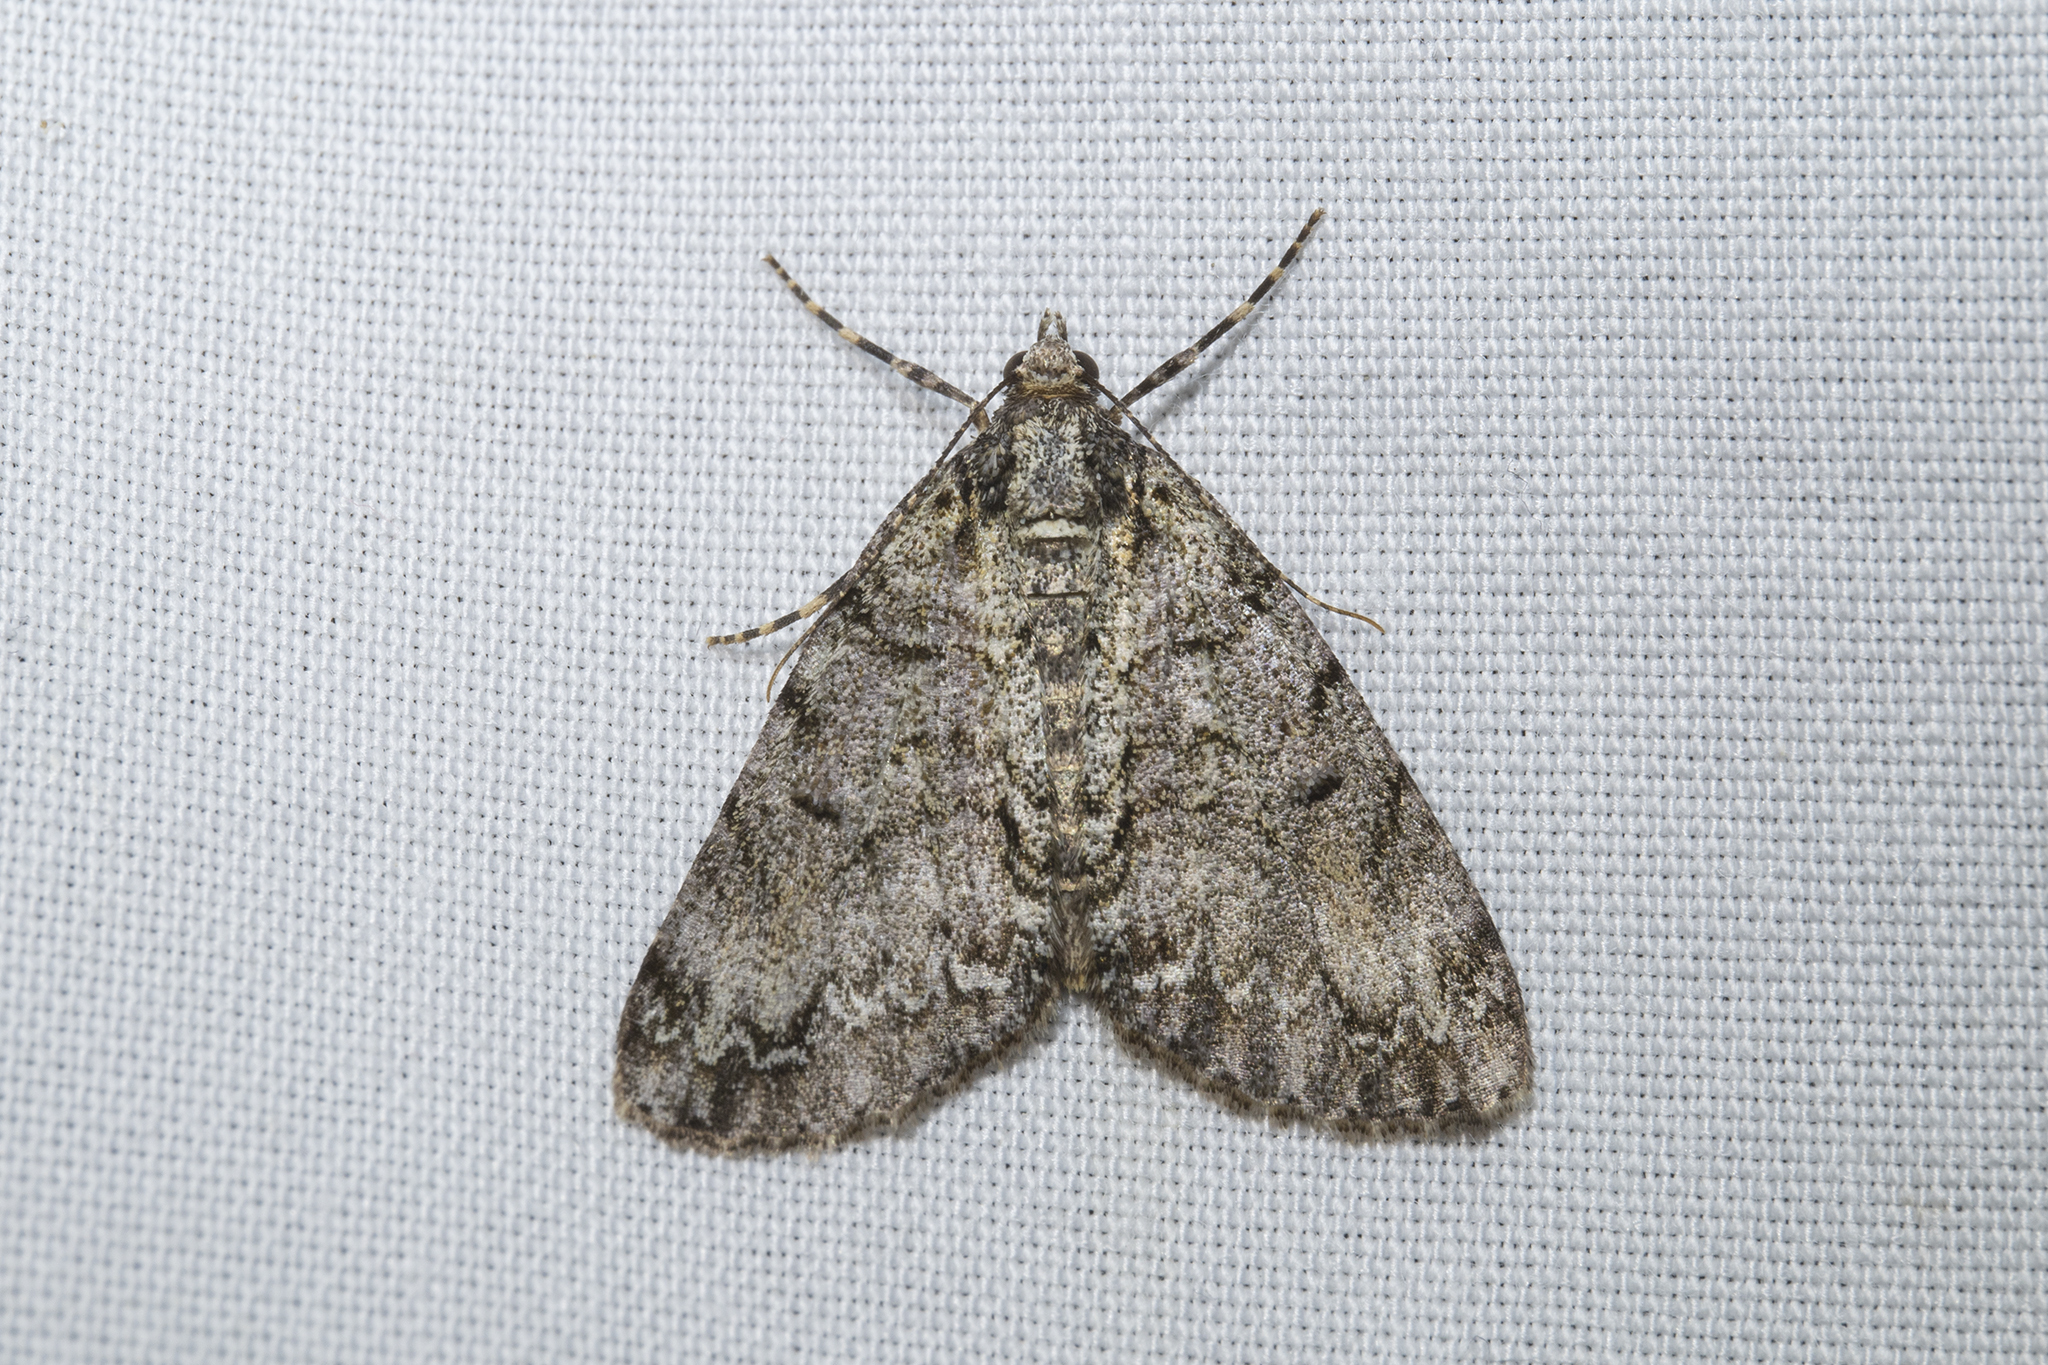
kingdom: Animalia
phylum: Arthropoda
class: Insecta
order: Lepidoptera
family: Geometridae
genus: Pseudocoremia
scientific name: Pseudocoremia suavis
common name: Common forest looper
